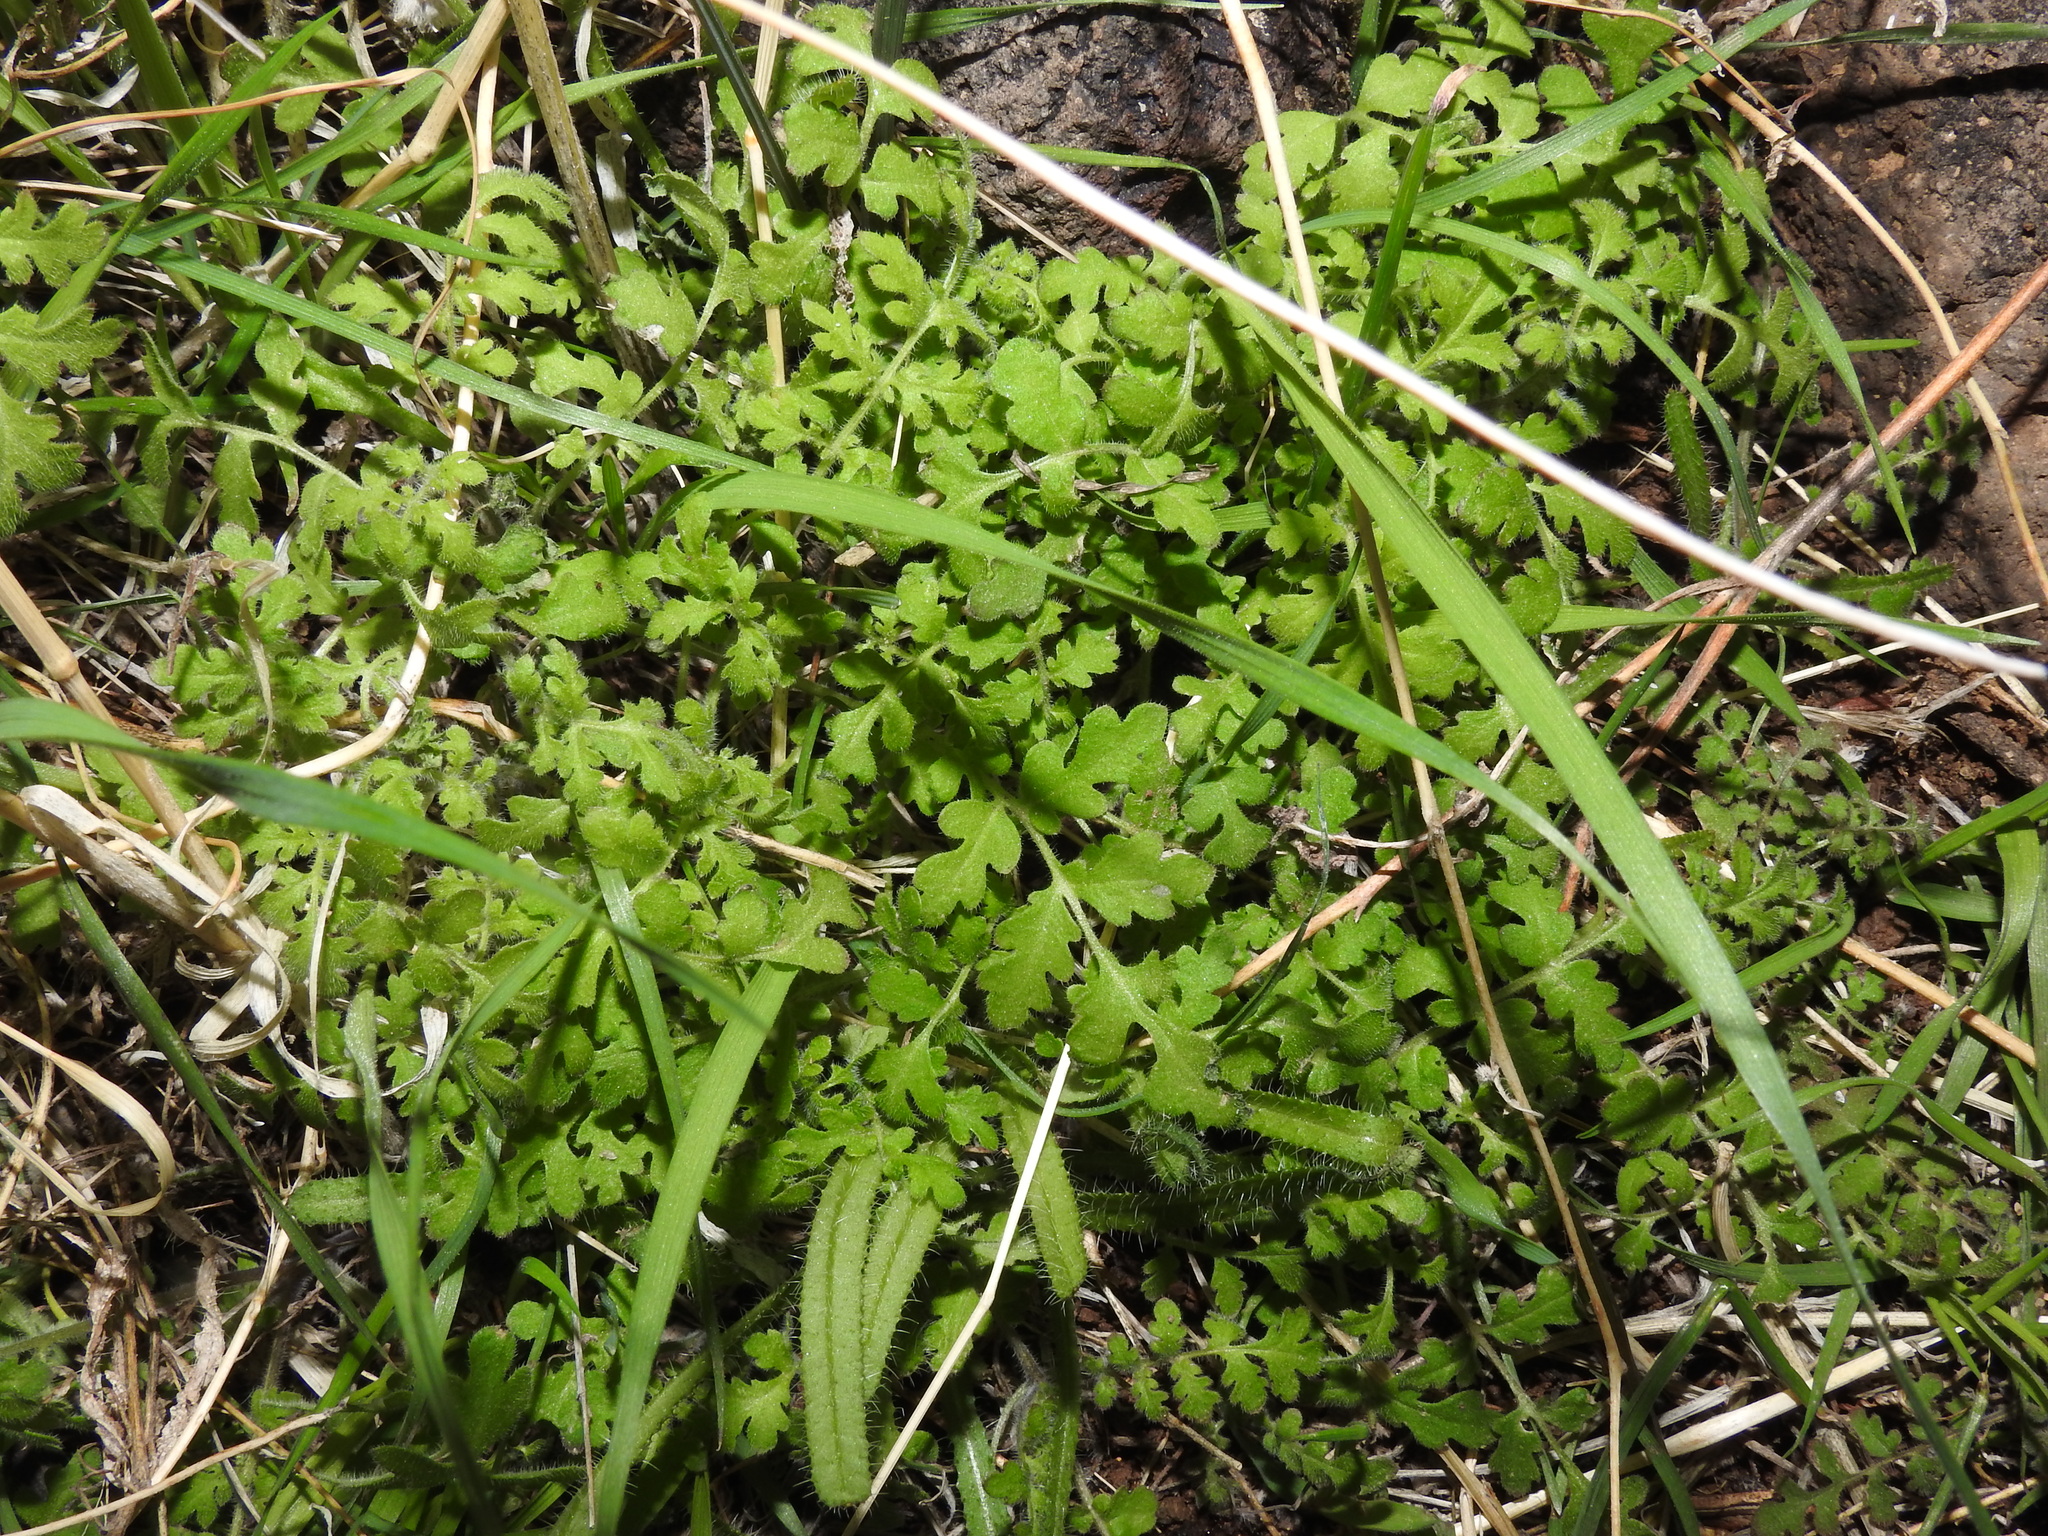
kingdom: Plantae
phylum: Tracheophyta
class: Magnoliopsida
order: Boraginales
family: Hydrophyllaceae
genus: Eucrypta
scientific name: Eucrypta chrysanthemifolia
